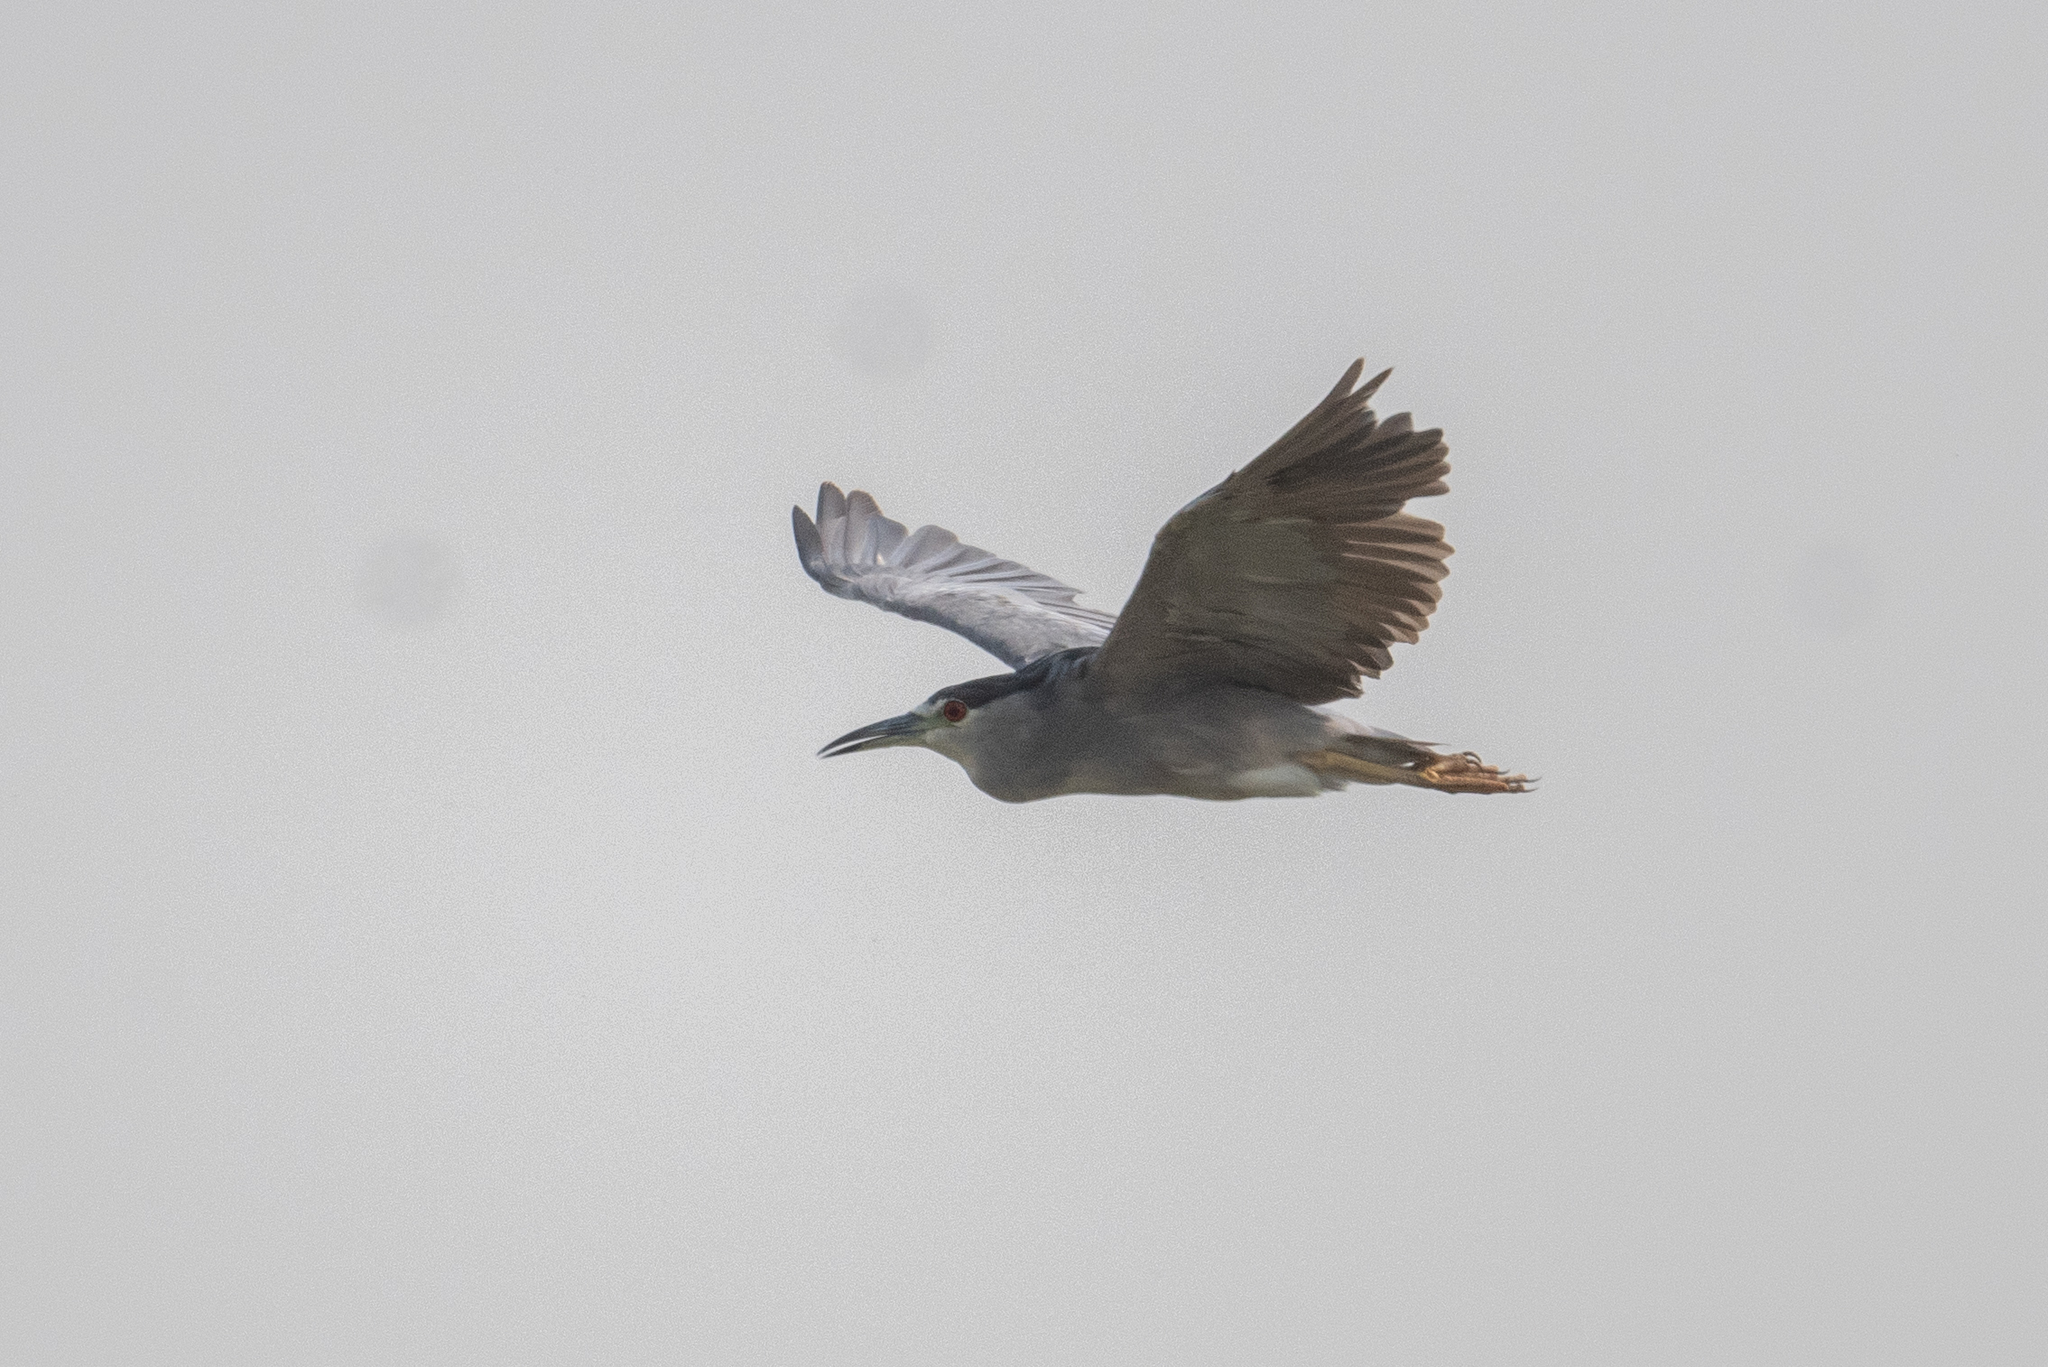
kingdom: Animalia
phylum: Chordata
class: Aves
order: Pelecaniformes
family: Ardeidae
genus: Nycticorax
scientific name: Nycticorax nycticorax
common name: Black-crowned night heron
